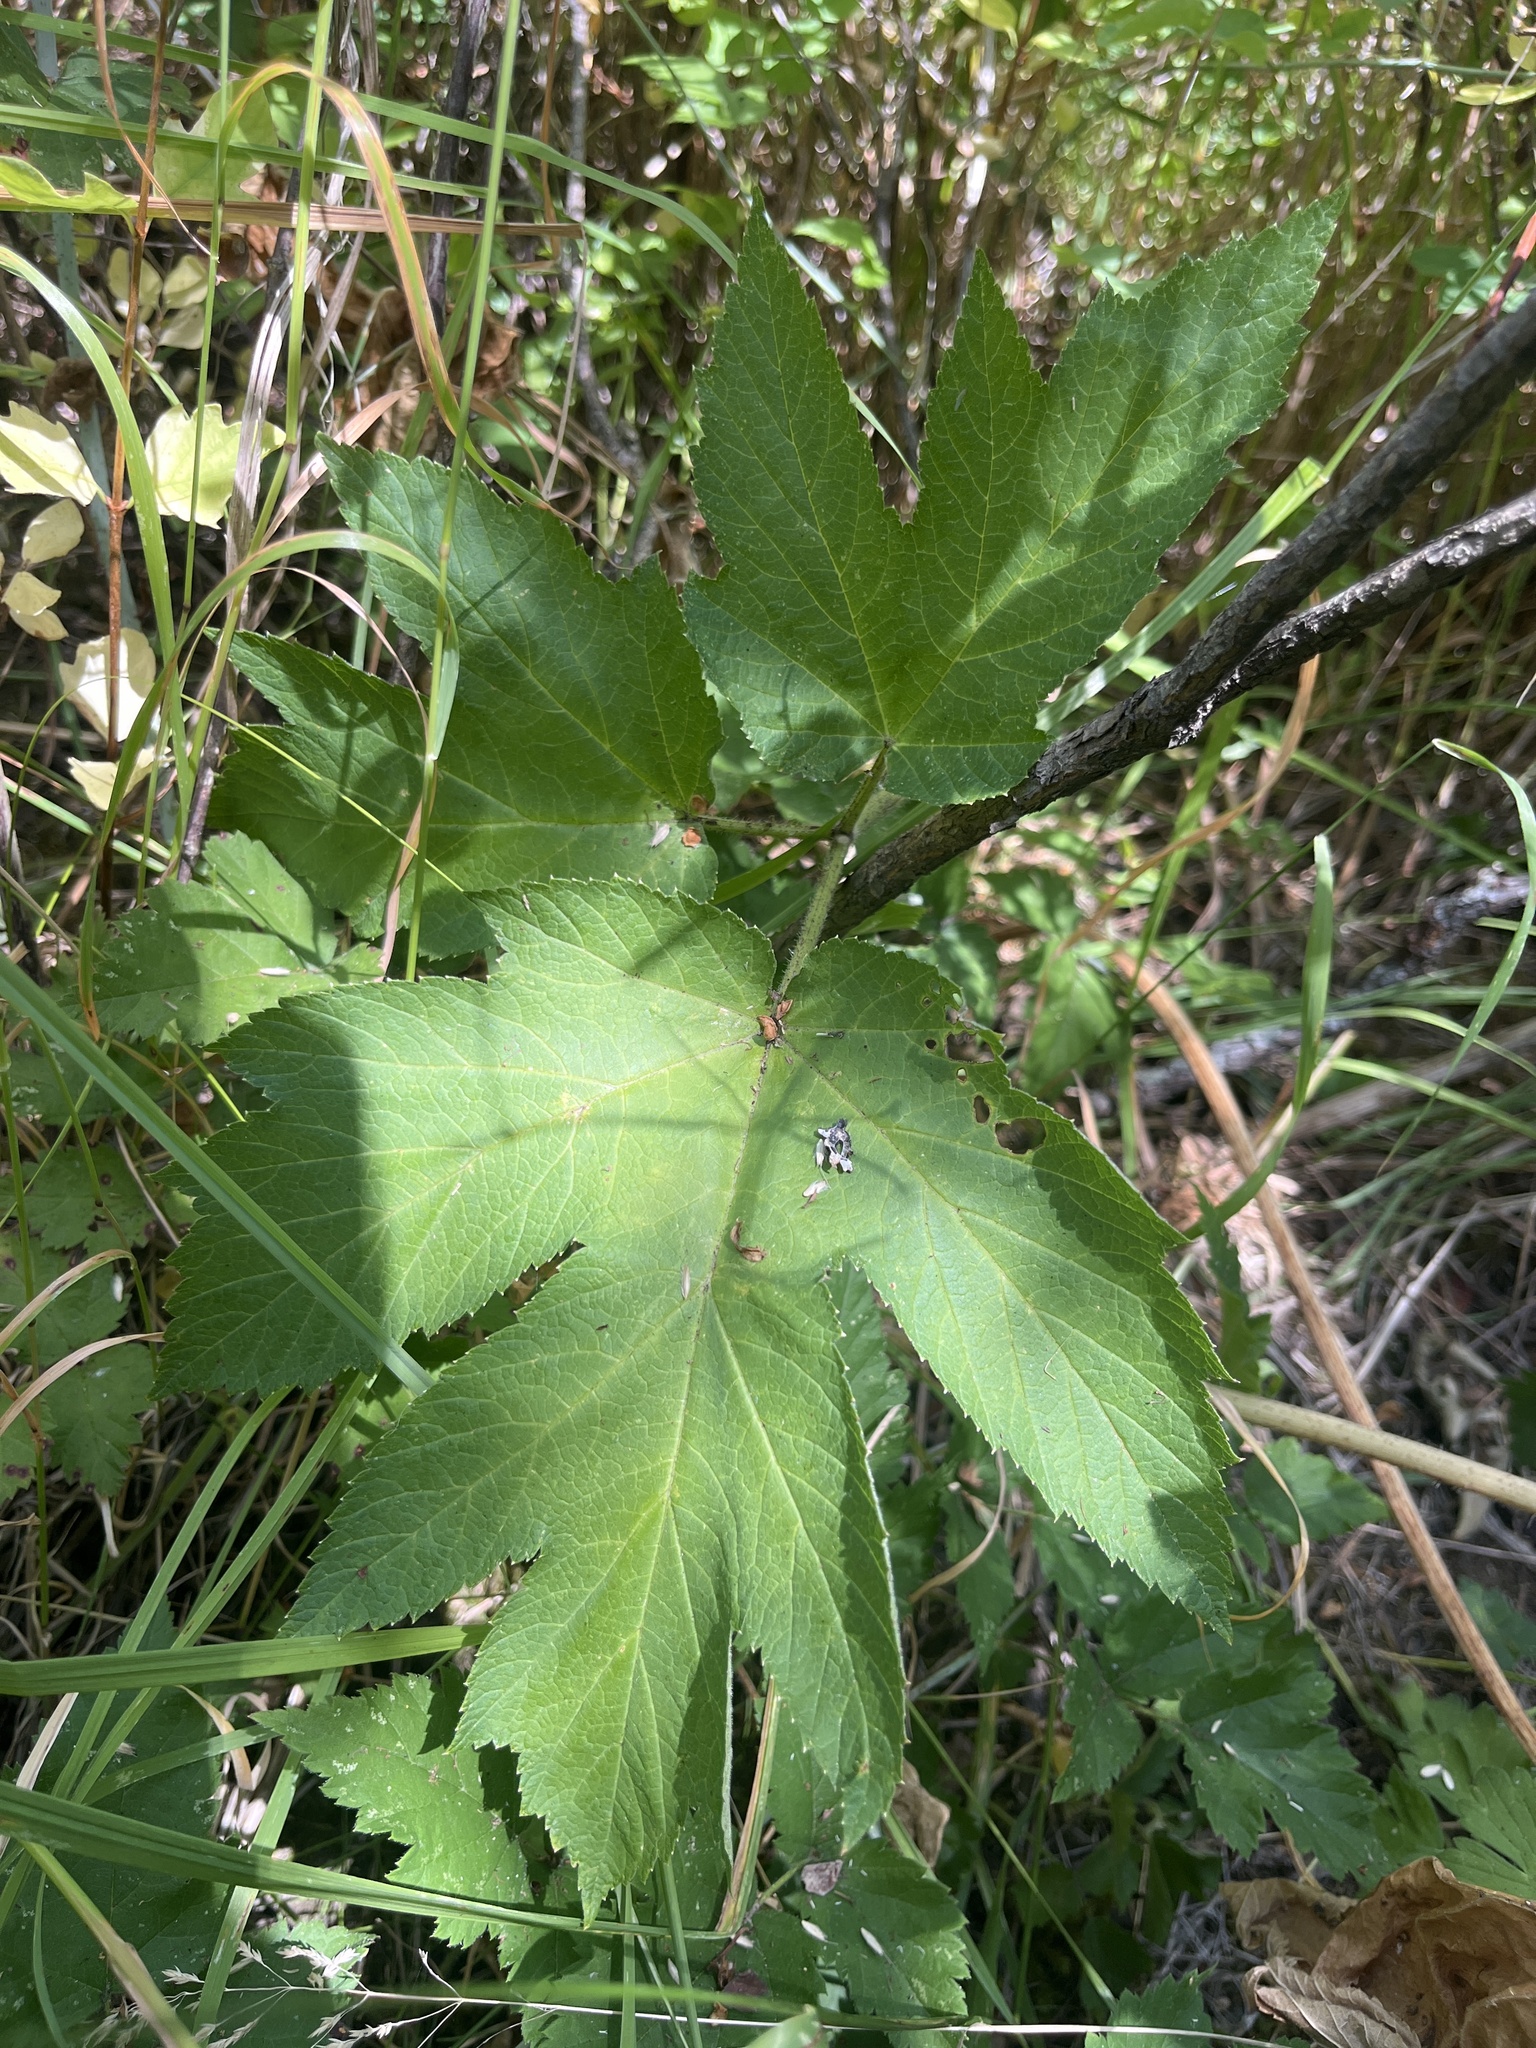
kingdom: Plantae
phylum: Tracheophyta
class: Magnoliopsida
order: Apiales
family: Apiaceae
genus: Heracleum
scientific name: Heracleum maximum
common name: American cow parsnip
